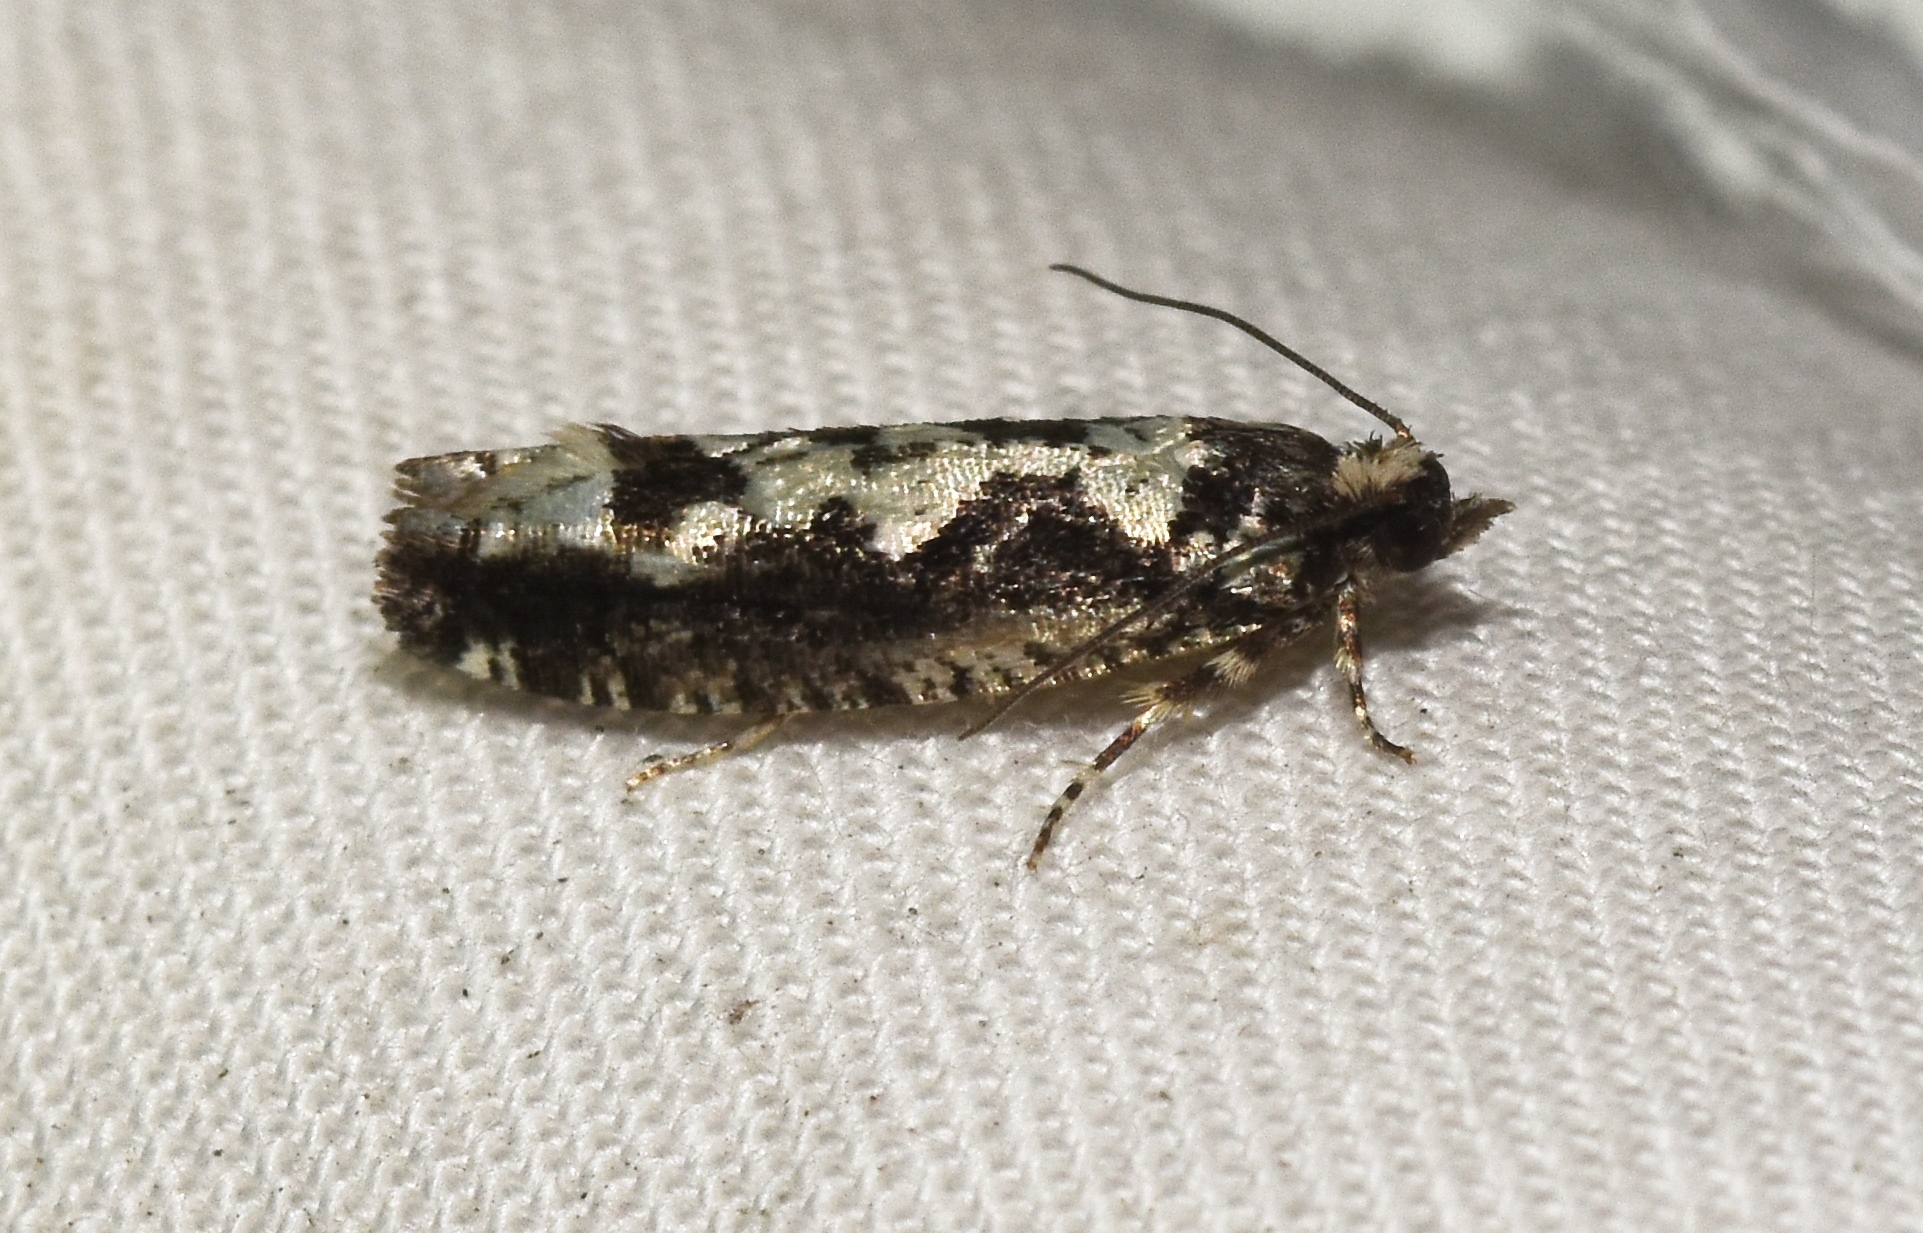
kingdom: Animalia
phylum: Arthropoda
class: Insecta
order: Lepidoptera
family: Tortricidae
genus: Chimoptesis
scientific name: Chimoptesis pennsylvaniana
